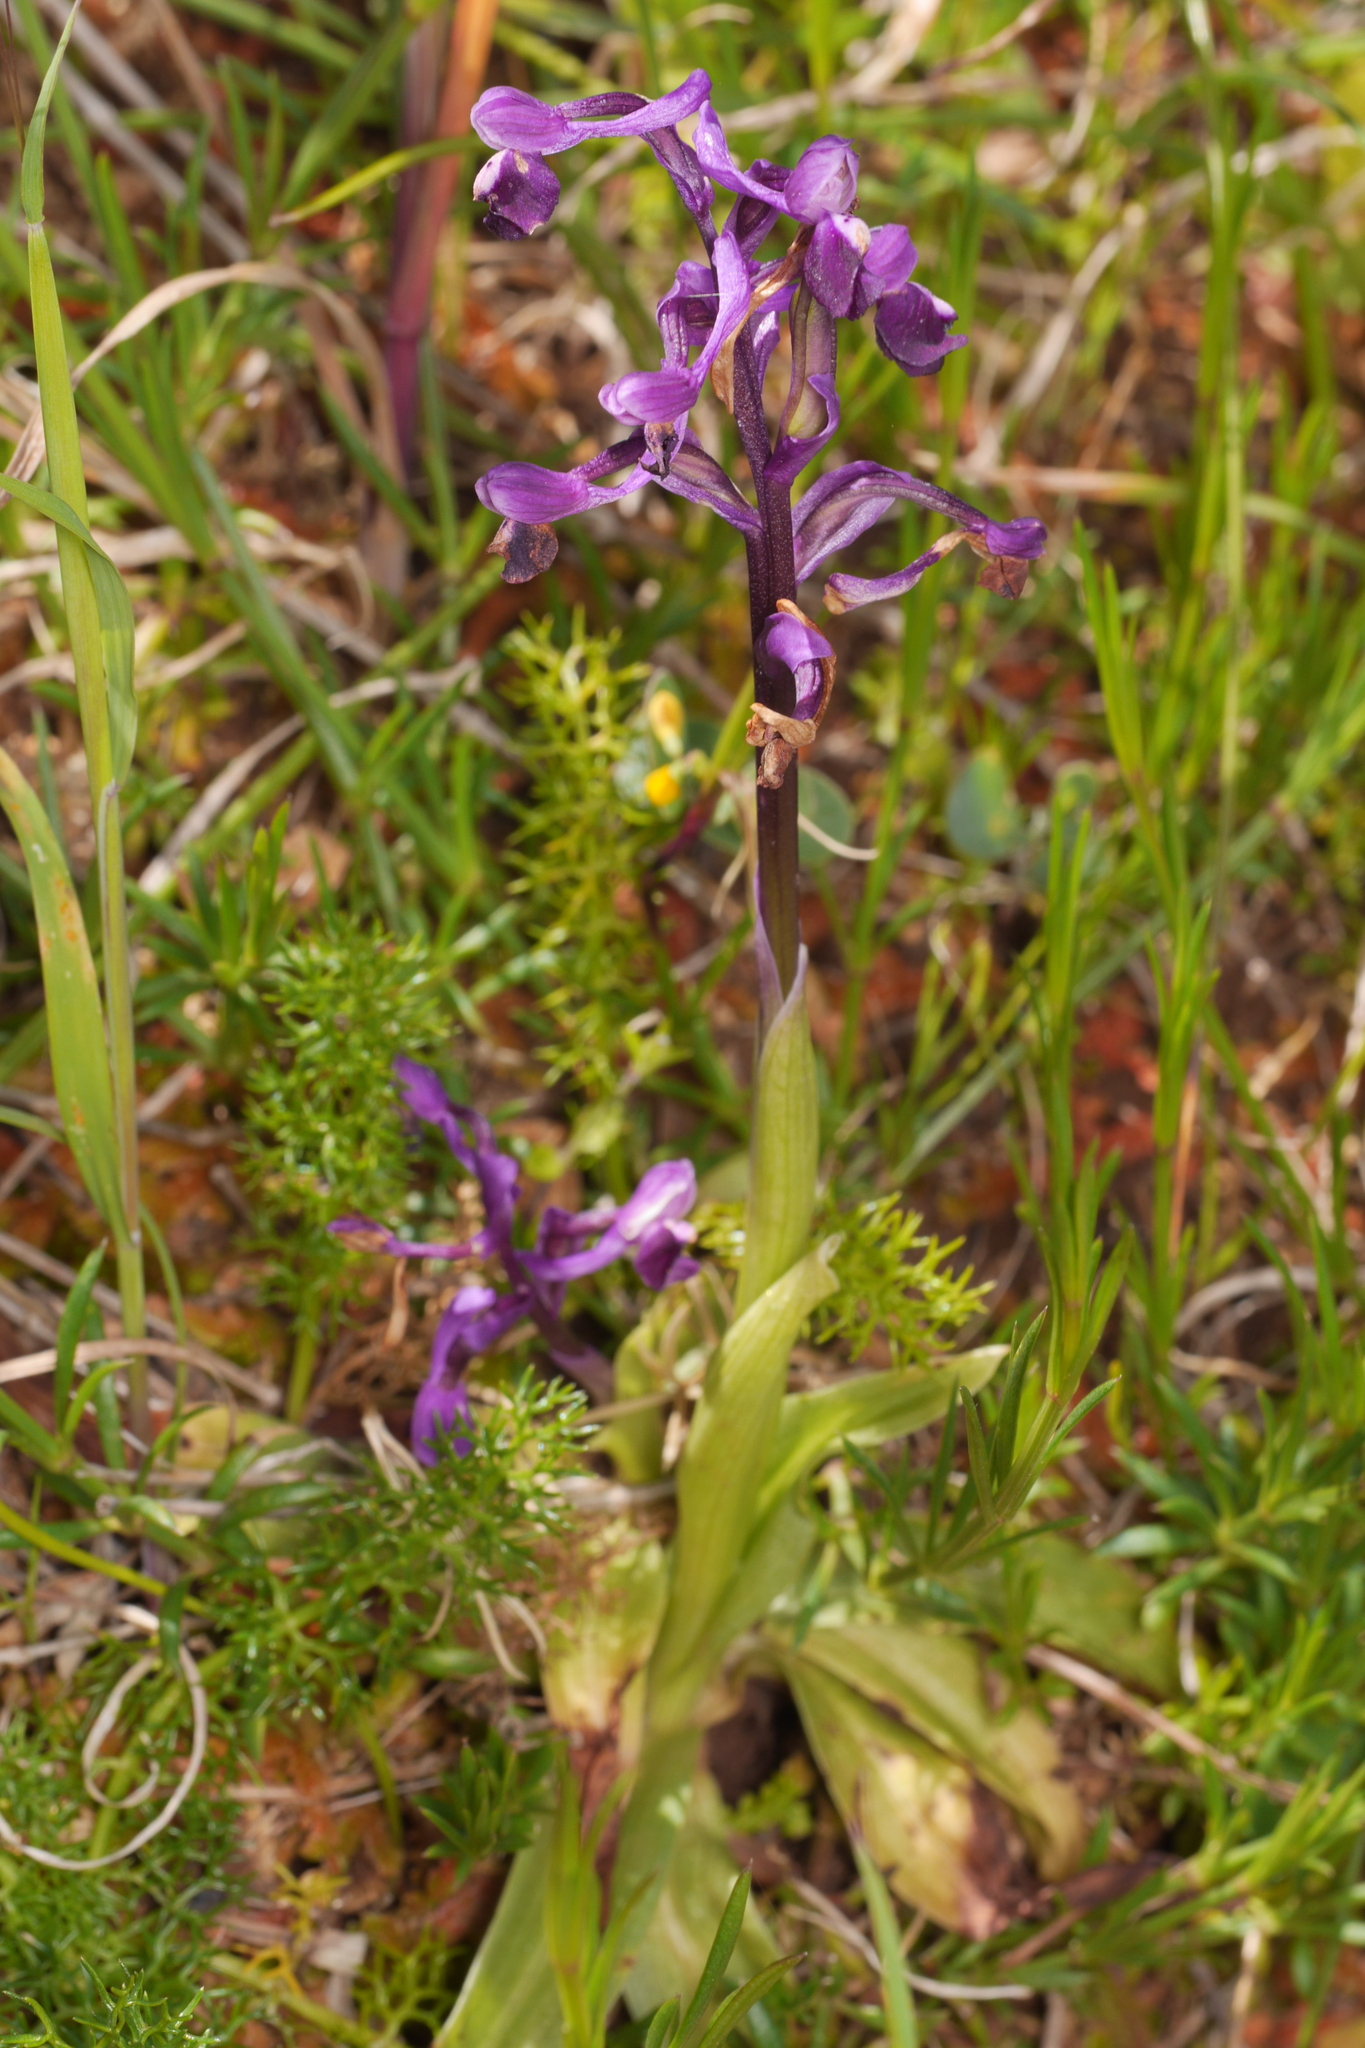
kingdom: Plantae
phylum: Tracheophyta
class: Liliopsida
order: Asparagales
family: Orchidaceae
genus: Anacamptis
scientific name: Anacamptis morio
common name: Green-winged orchid
